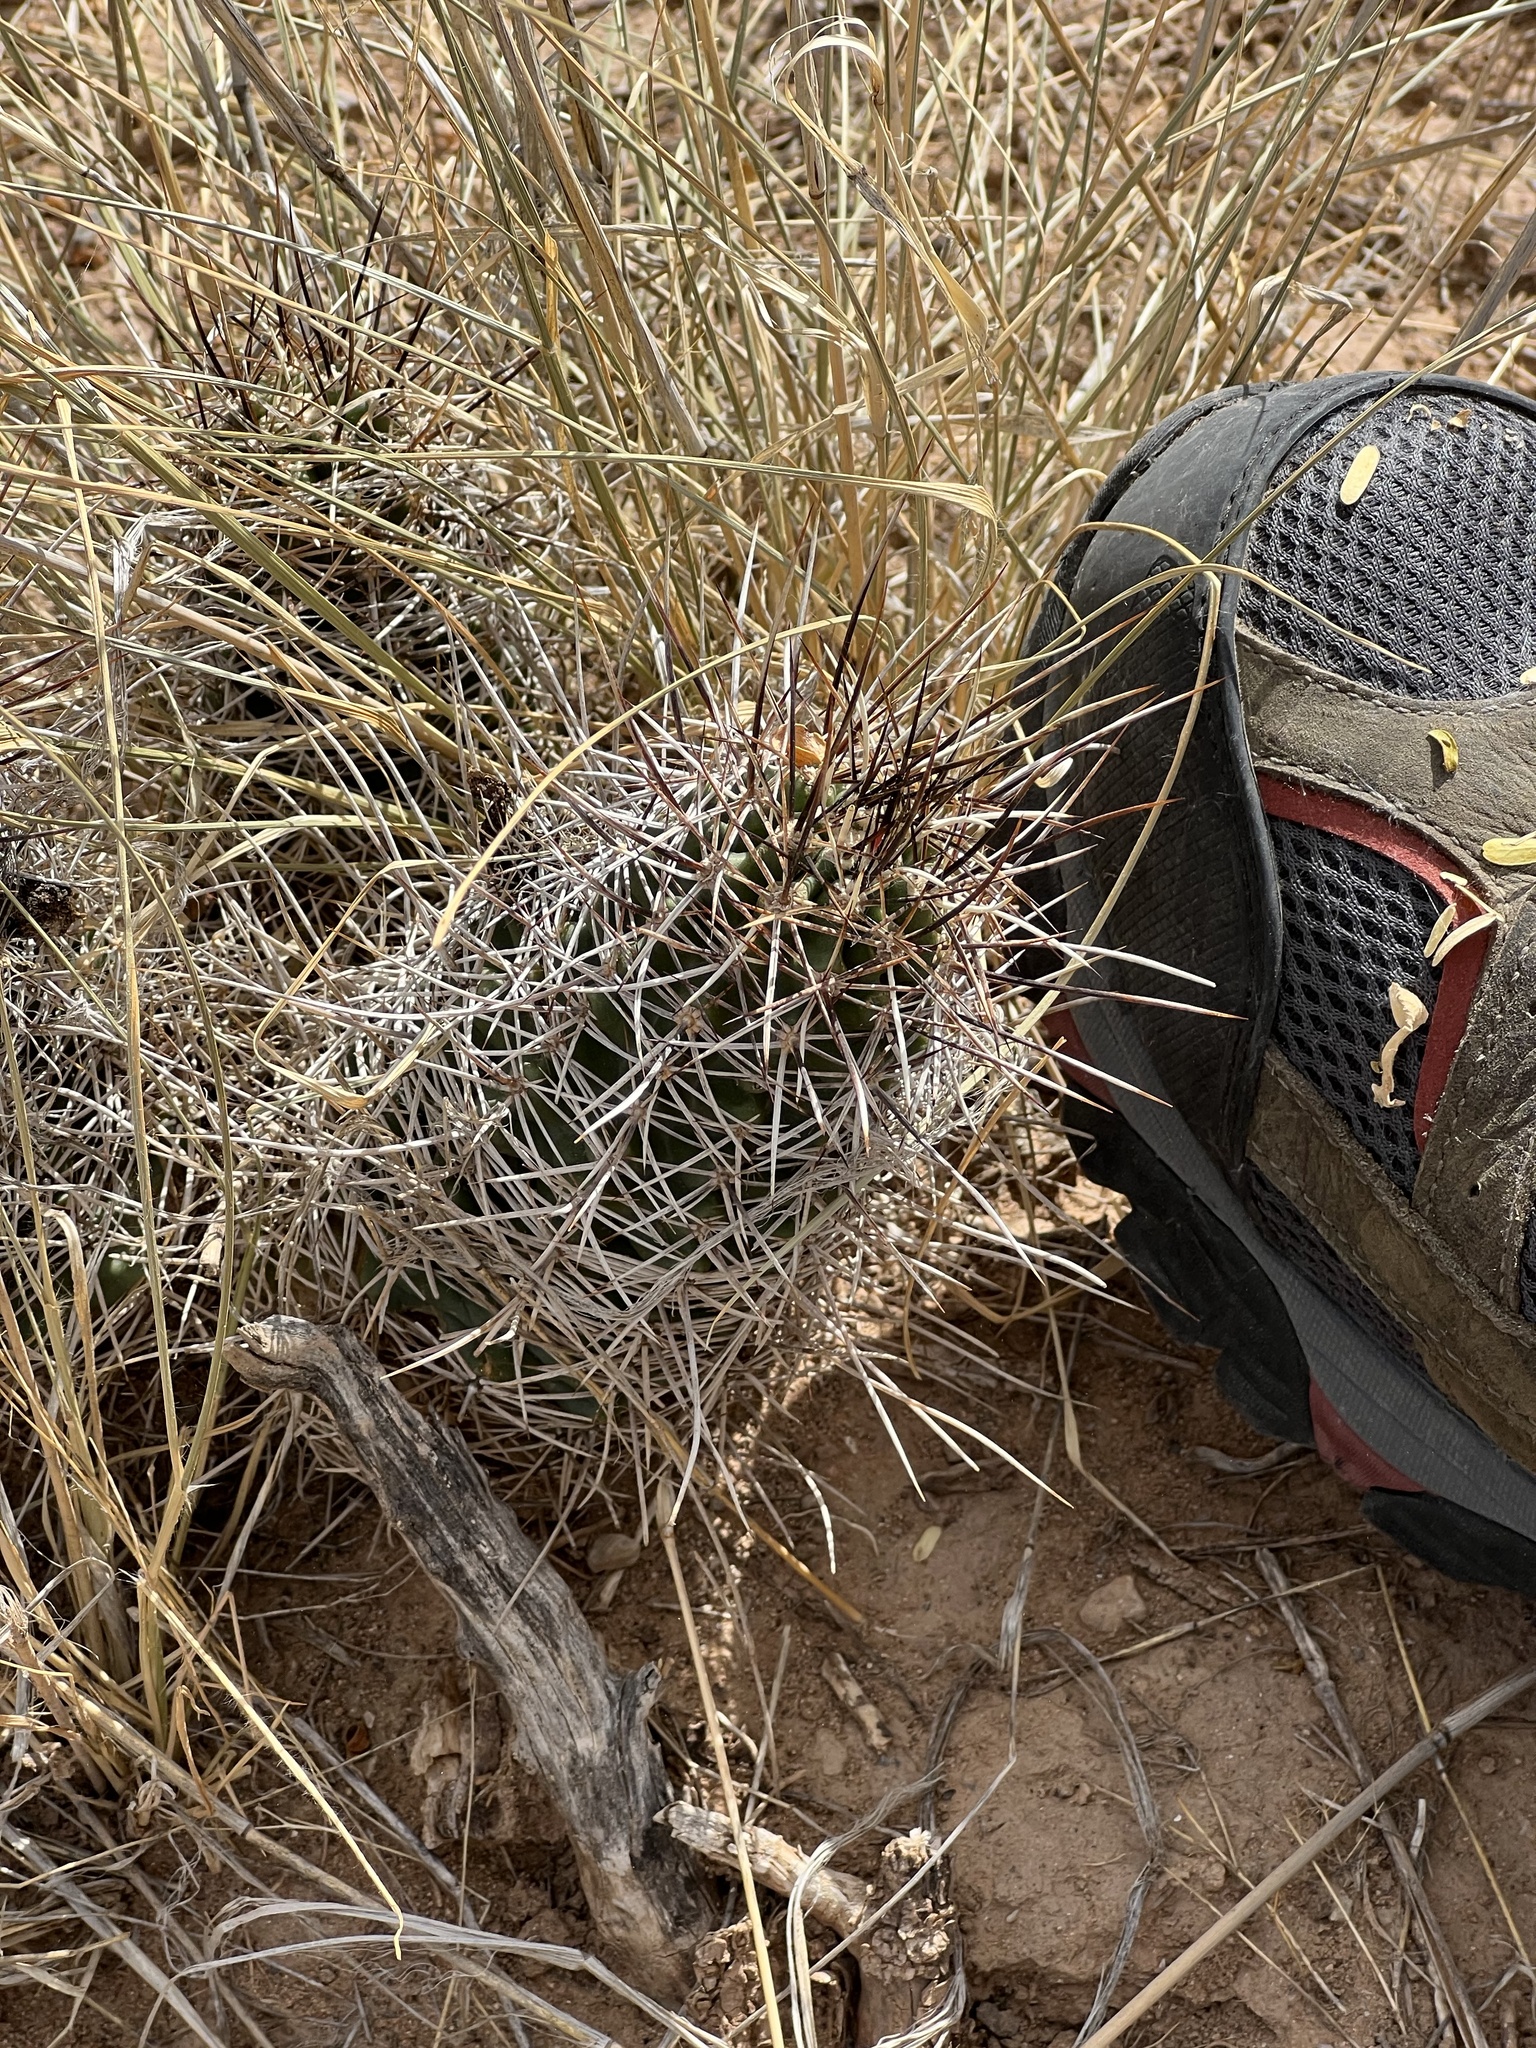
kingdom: Plantae
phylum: Tracheophyta
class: Magnoliopsida
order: Caryophyllales
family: Cactaceae
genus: Echinocereus
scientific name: Echinocereus fendleri
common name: Fendler's hedgehog cactus
